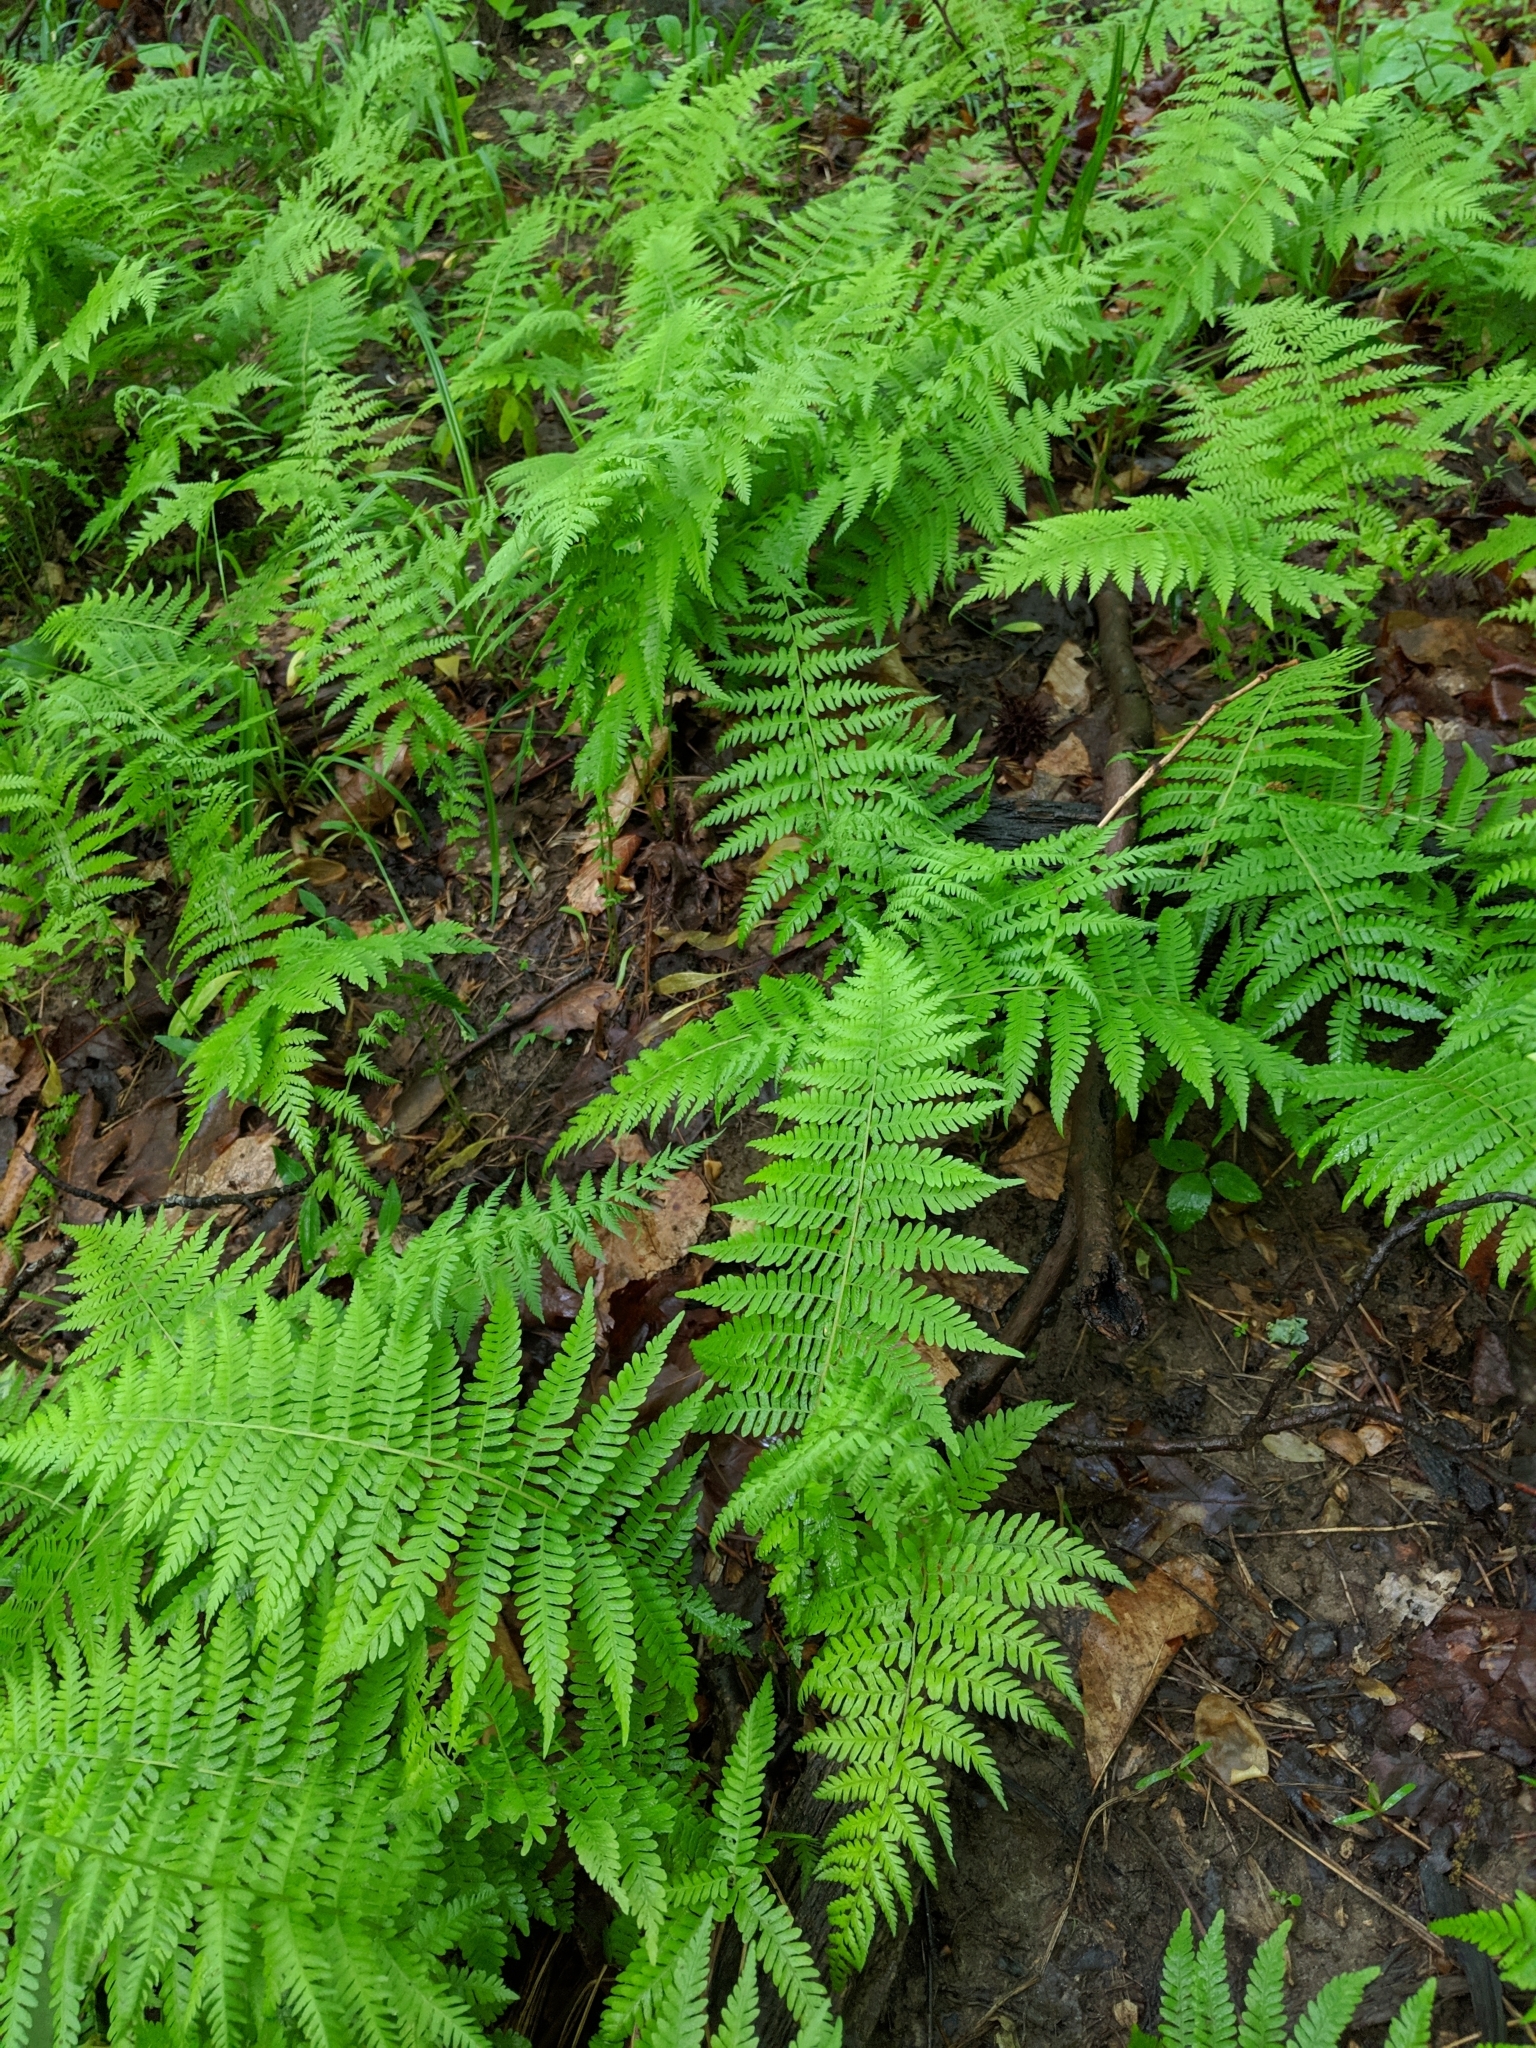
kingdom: Plantae
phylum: Tracheophyta
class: Polypodiopsida
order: Polypodiales
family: Thelypteridaceae
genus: Amauropelta
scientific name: Amauropelta noveboracensis
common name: New york fern
